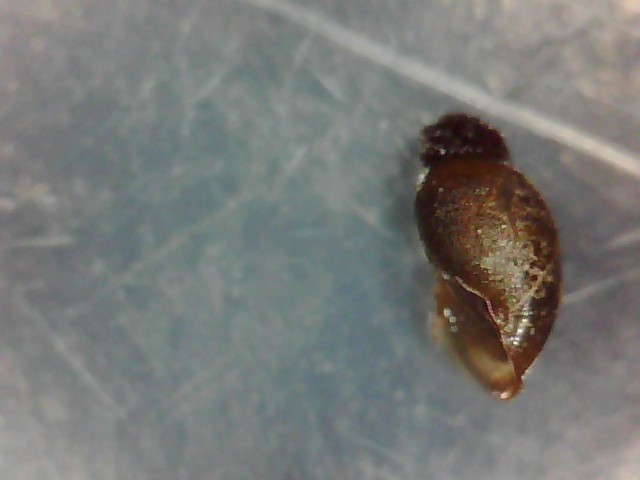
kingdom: Animalia
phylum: Mollusca
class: Gastropoda
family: Physidae
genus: Physella
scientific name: Physella acuta
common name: European physa
